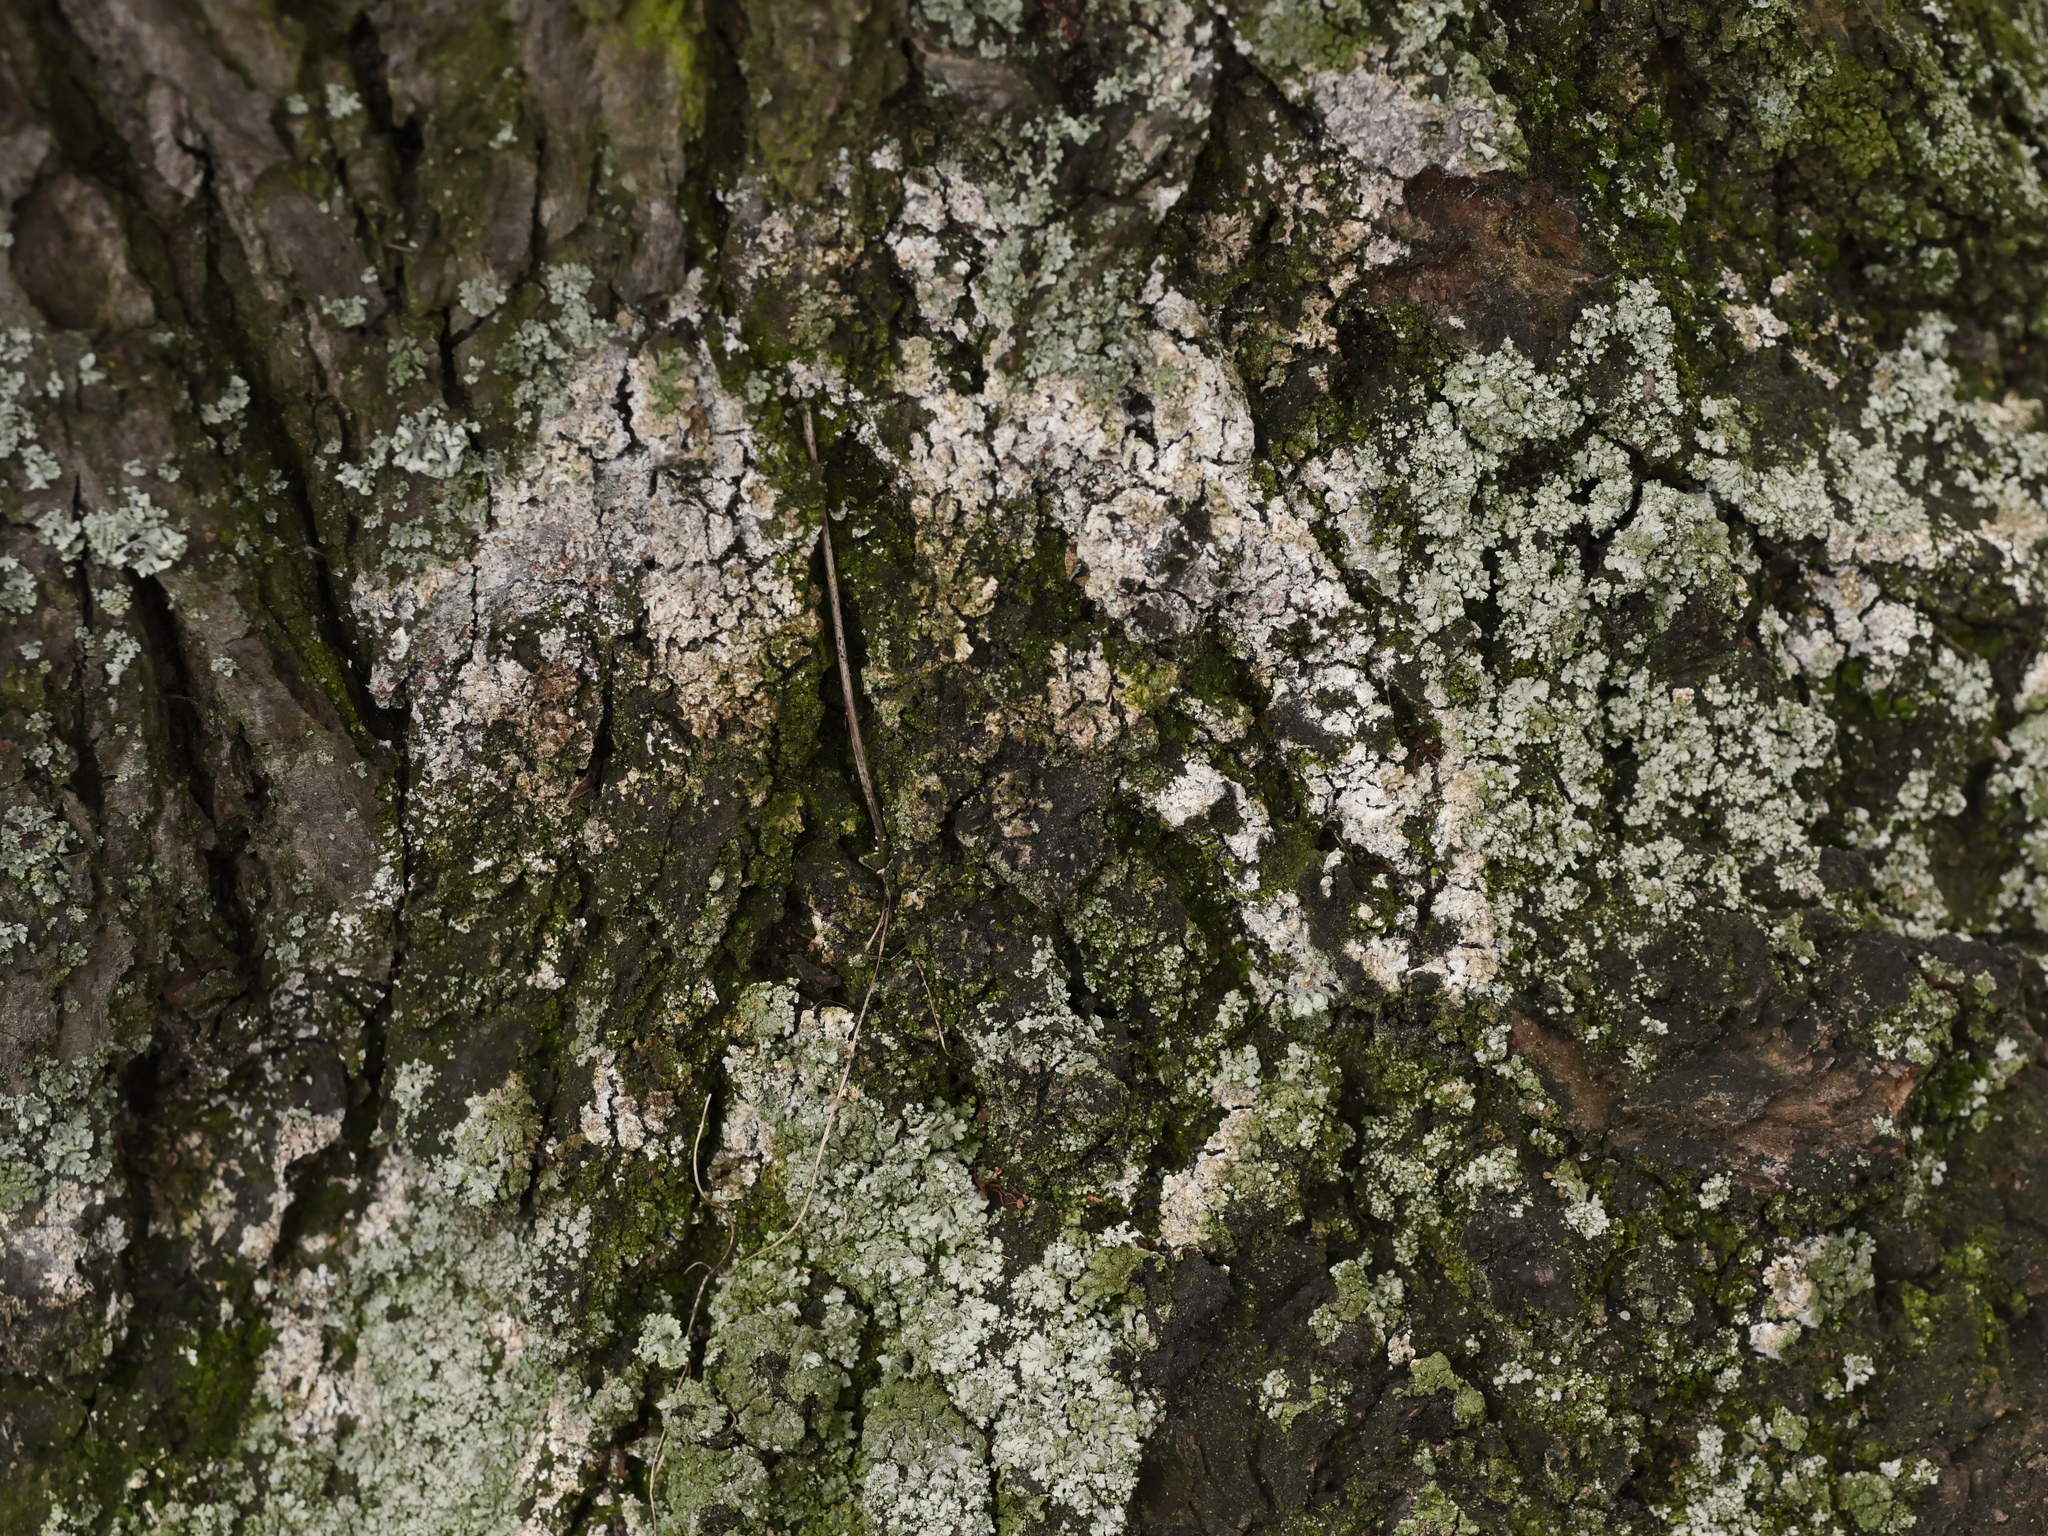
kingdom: Fungi
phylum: Basidiomycota
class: Agaricomycetes
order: Atheliales
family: Atheliaceae
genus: Athelia
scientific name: Athelia arachnoidea
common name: Candelabra duster
